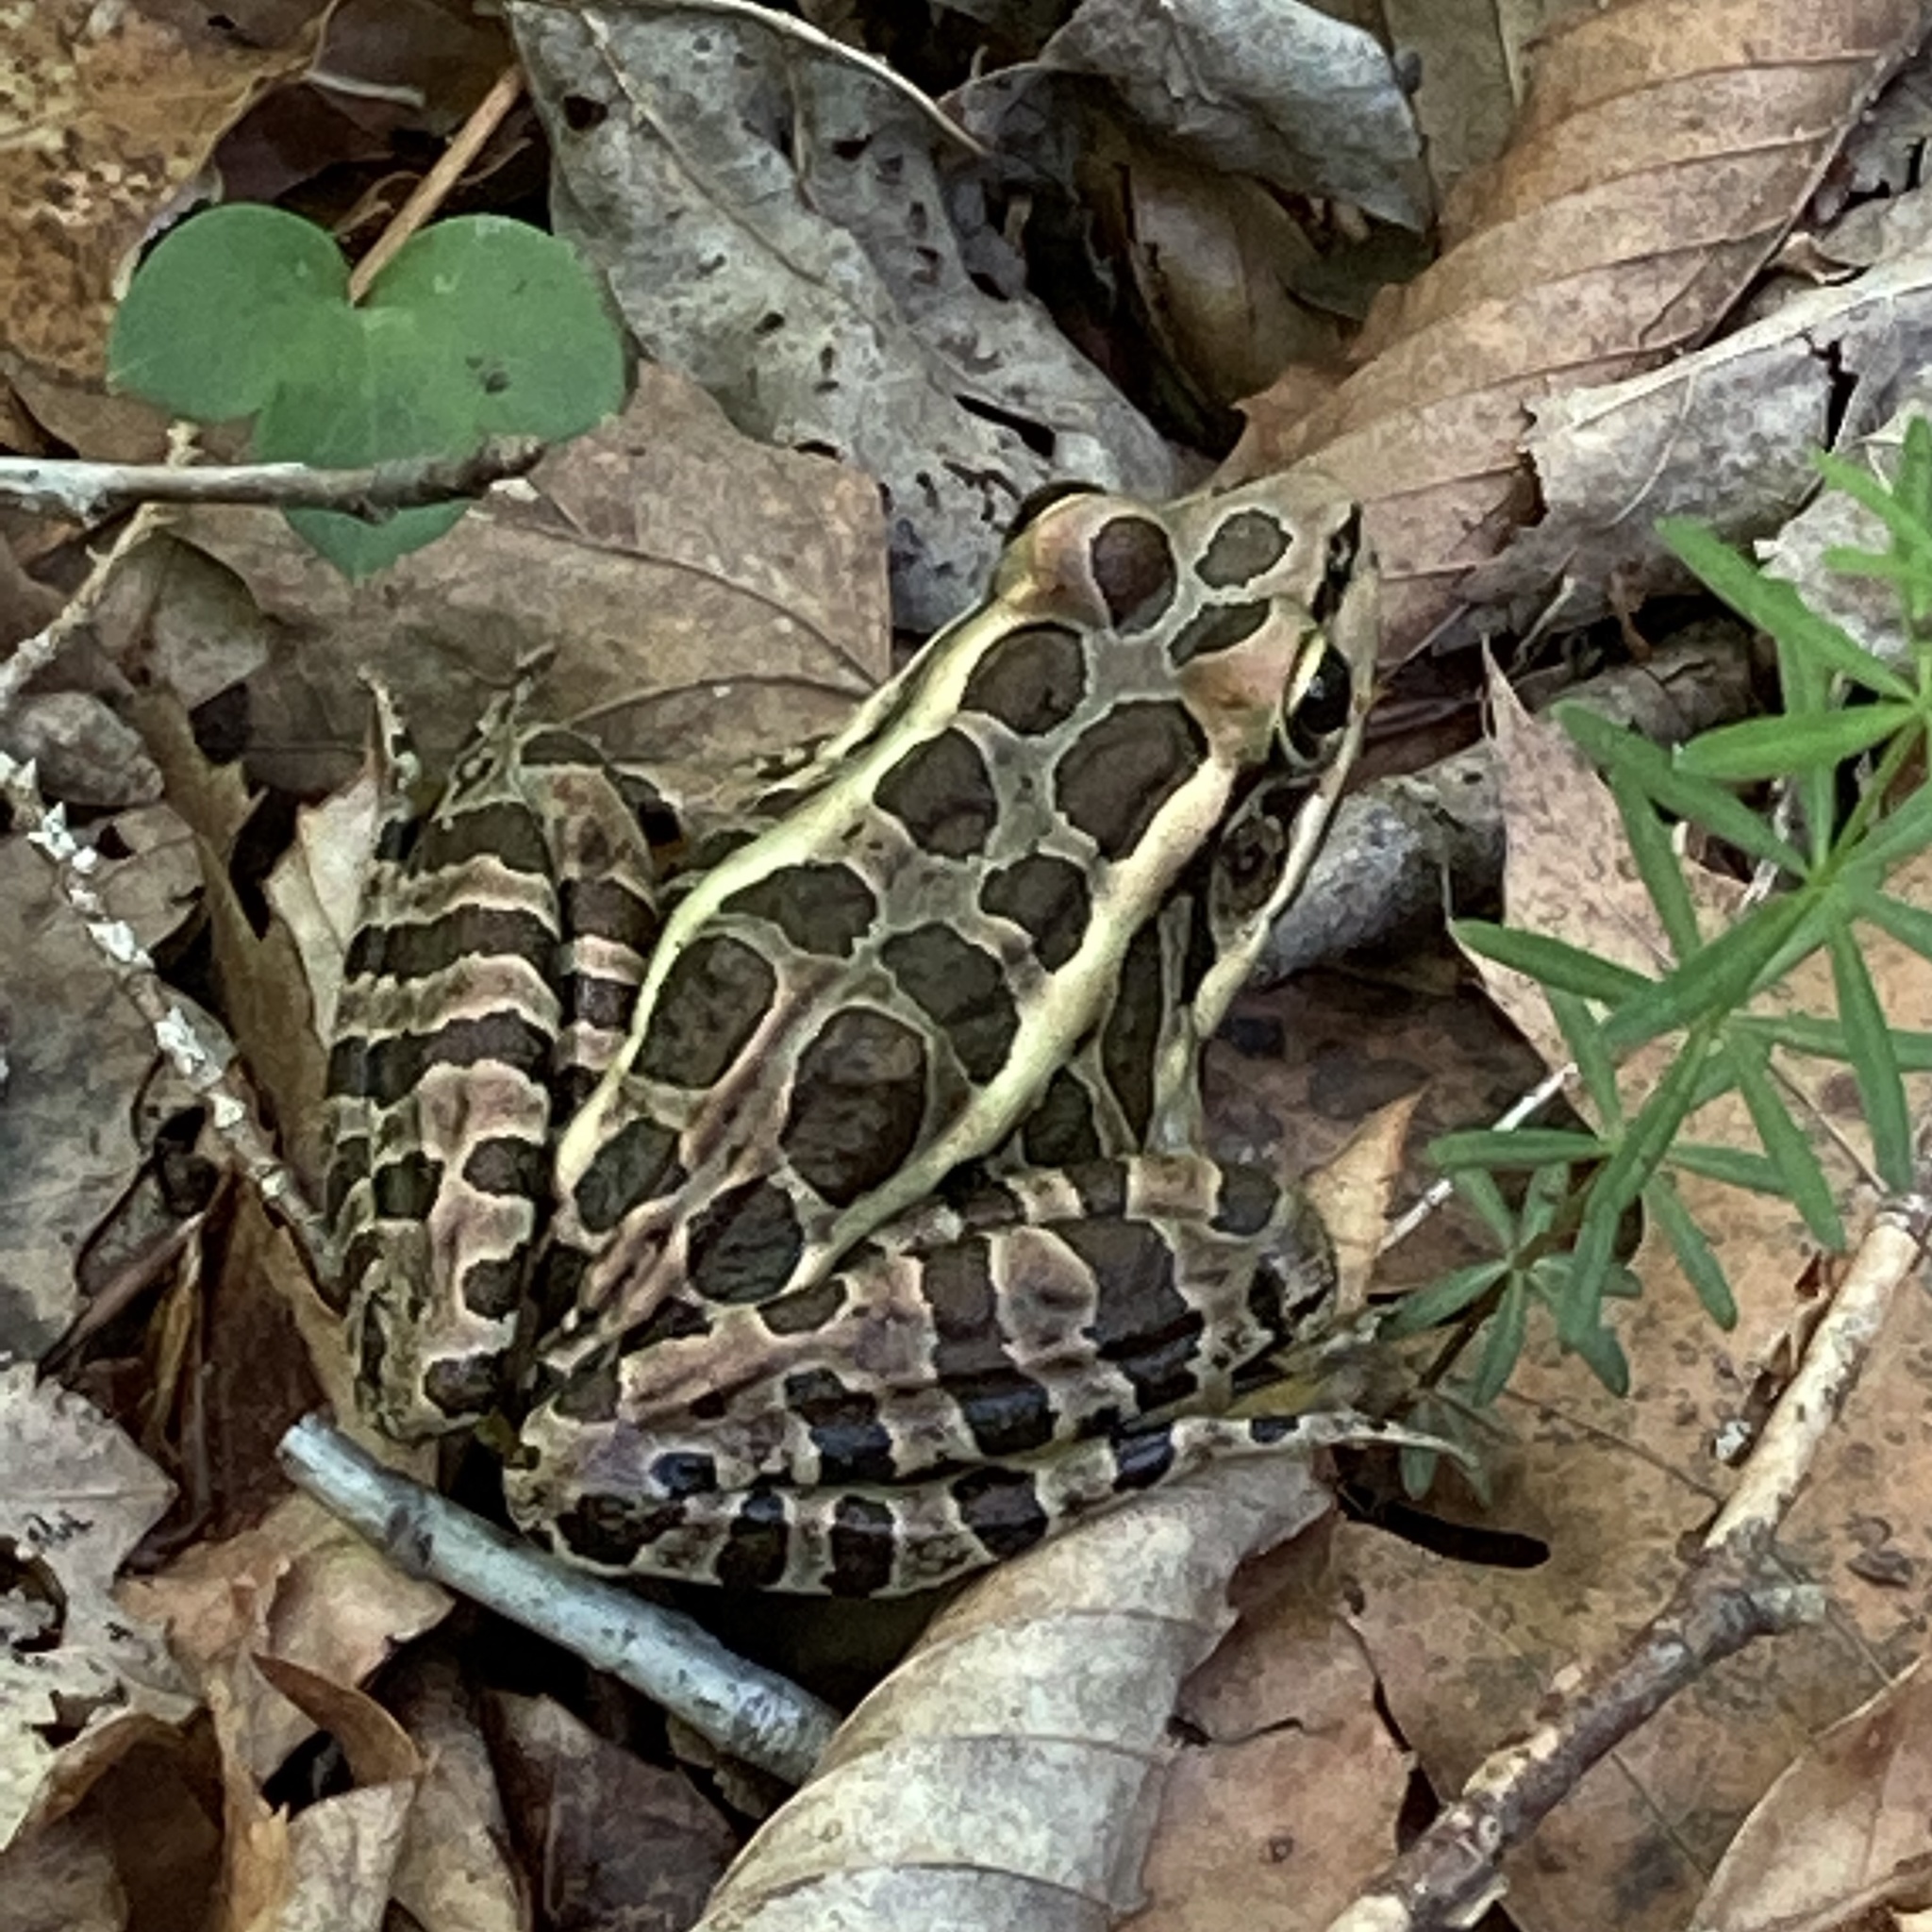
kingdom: Animalia
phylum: Chordata
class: Amphibia
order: Anura
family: Ranidae
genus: Lithobates
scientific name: Lithobates palustris
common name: Pickerel frog
